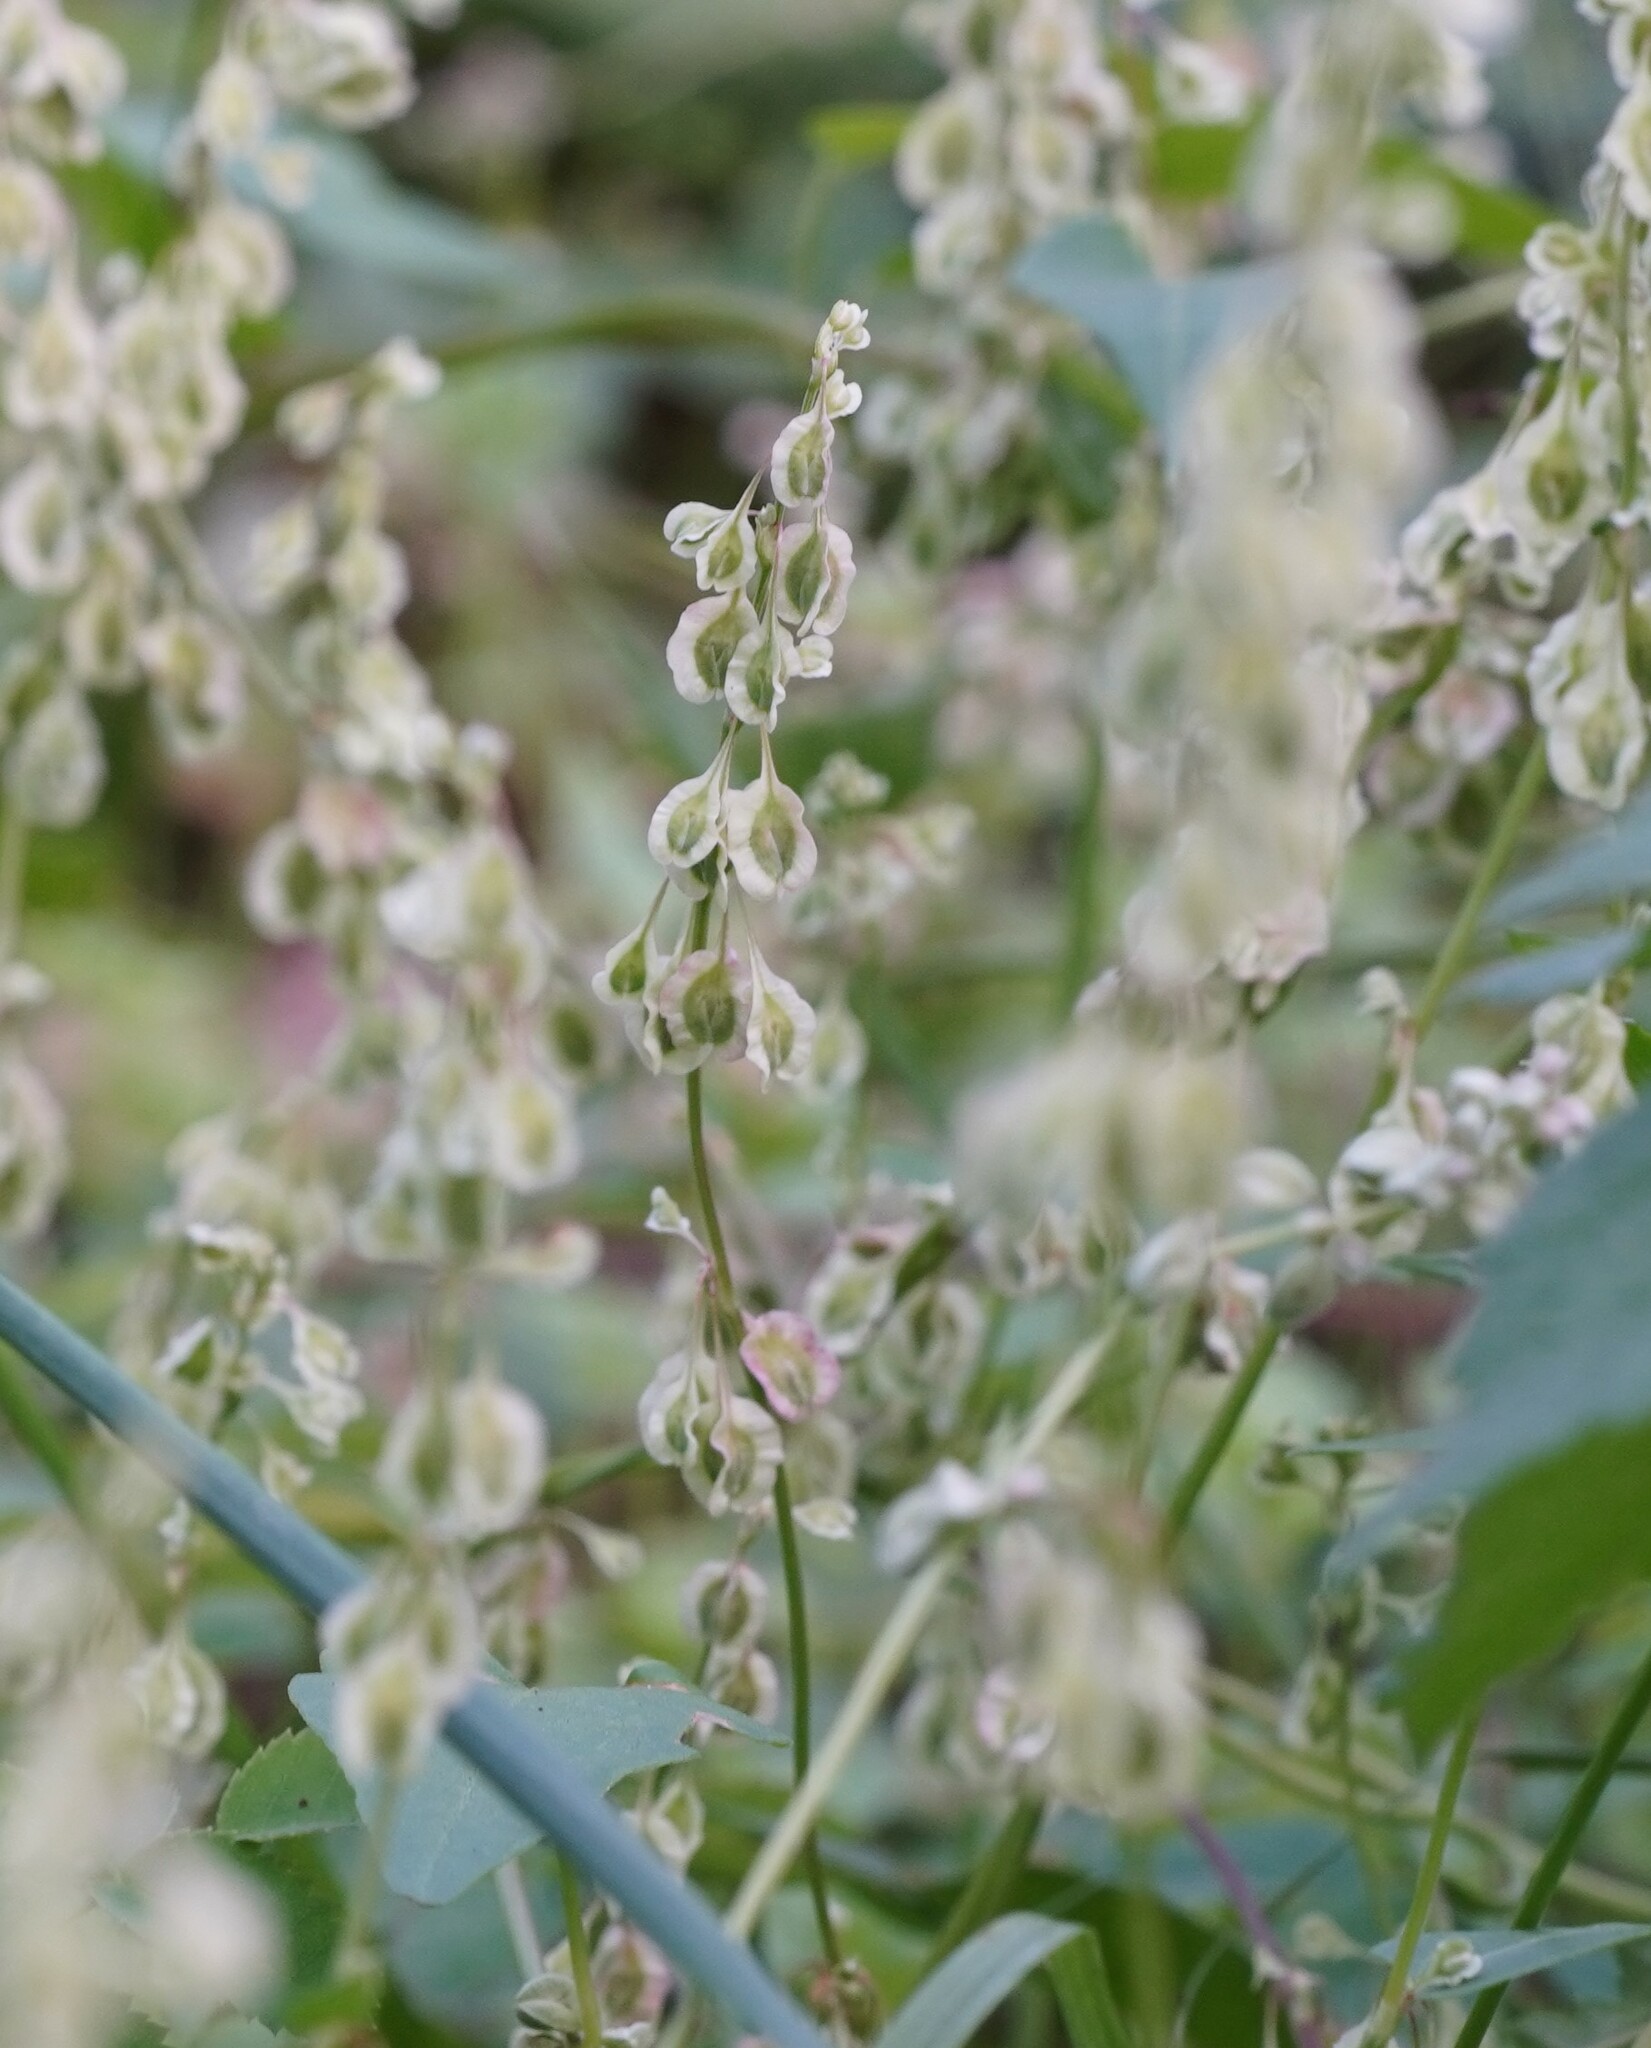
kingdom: Plantae
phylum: Tracheophyta
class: Magnoliopsida
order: Caryophyllales
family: Polygonaceae
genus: Fallopia
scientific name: Fallopia dumetorum
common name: Copse-bindweed
